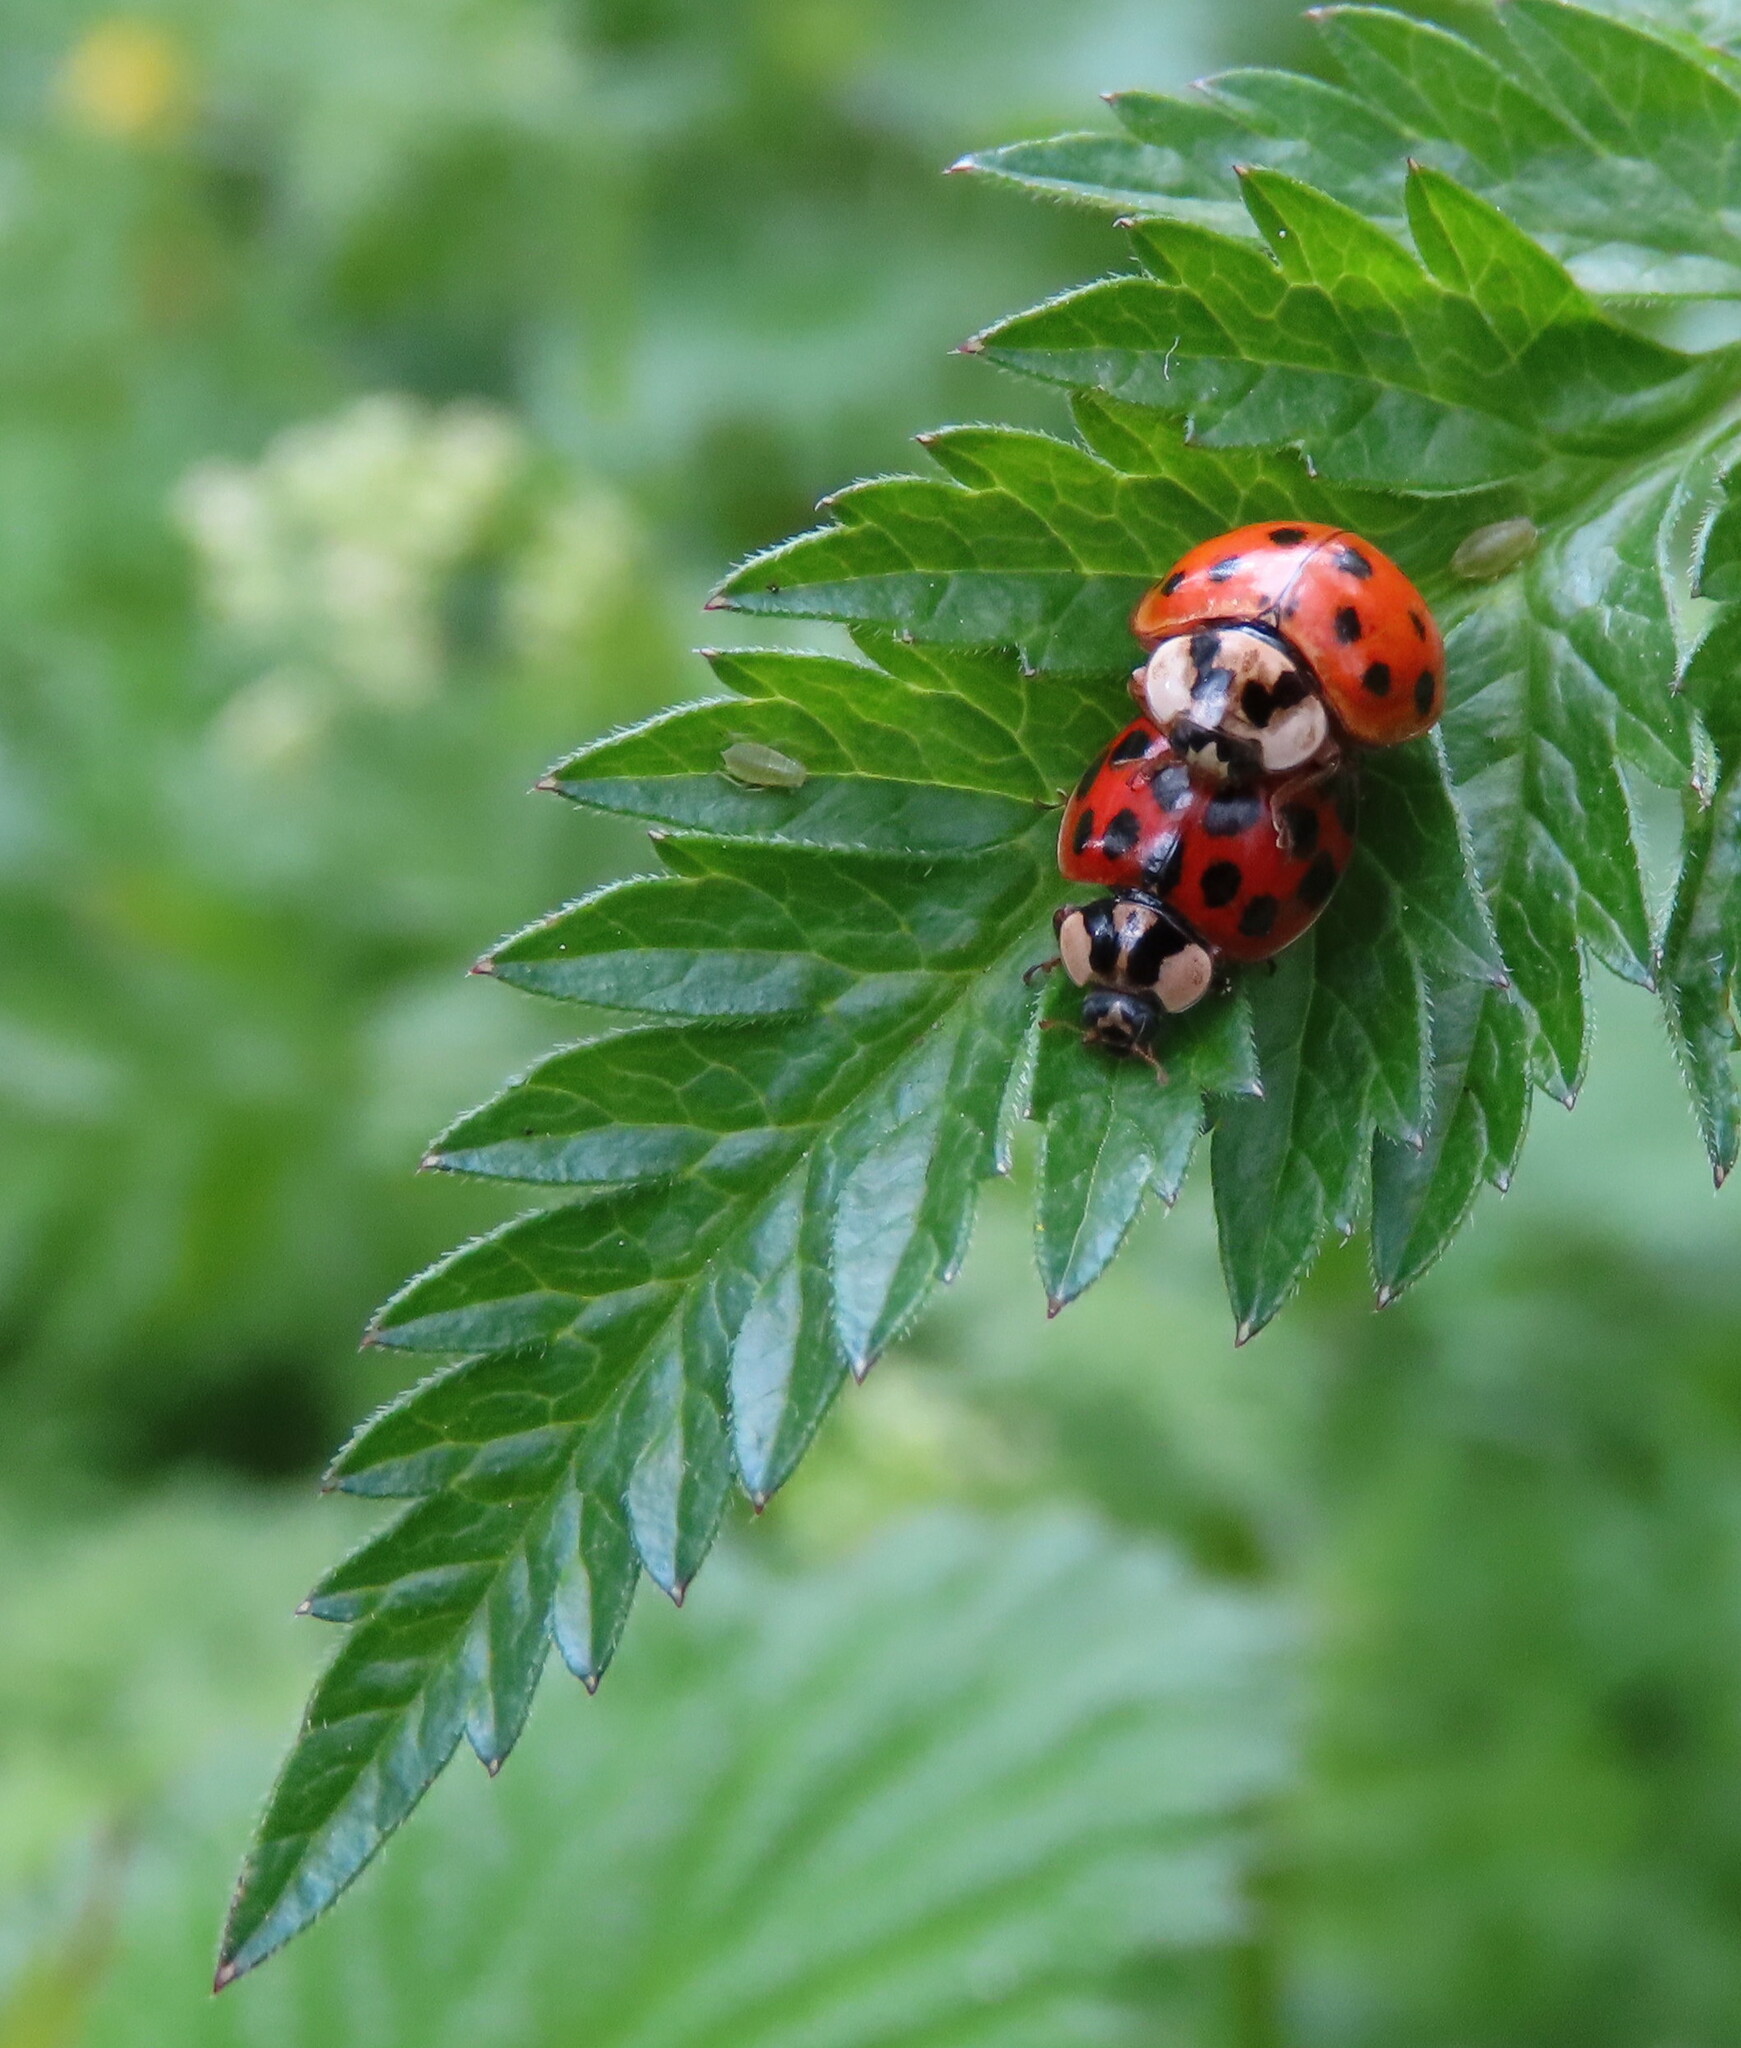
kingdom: Animalia
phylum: Arthropoda
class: Insecta
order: Coleoptera
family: Coccinellidae
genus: Harmonia
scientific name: Harmonia axyridis
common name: Harlequin ladybird
